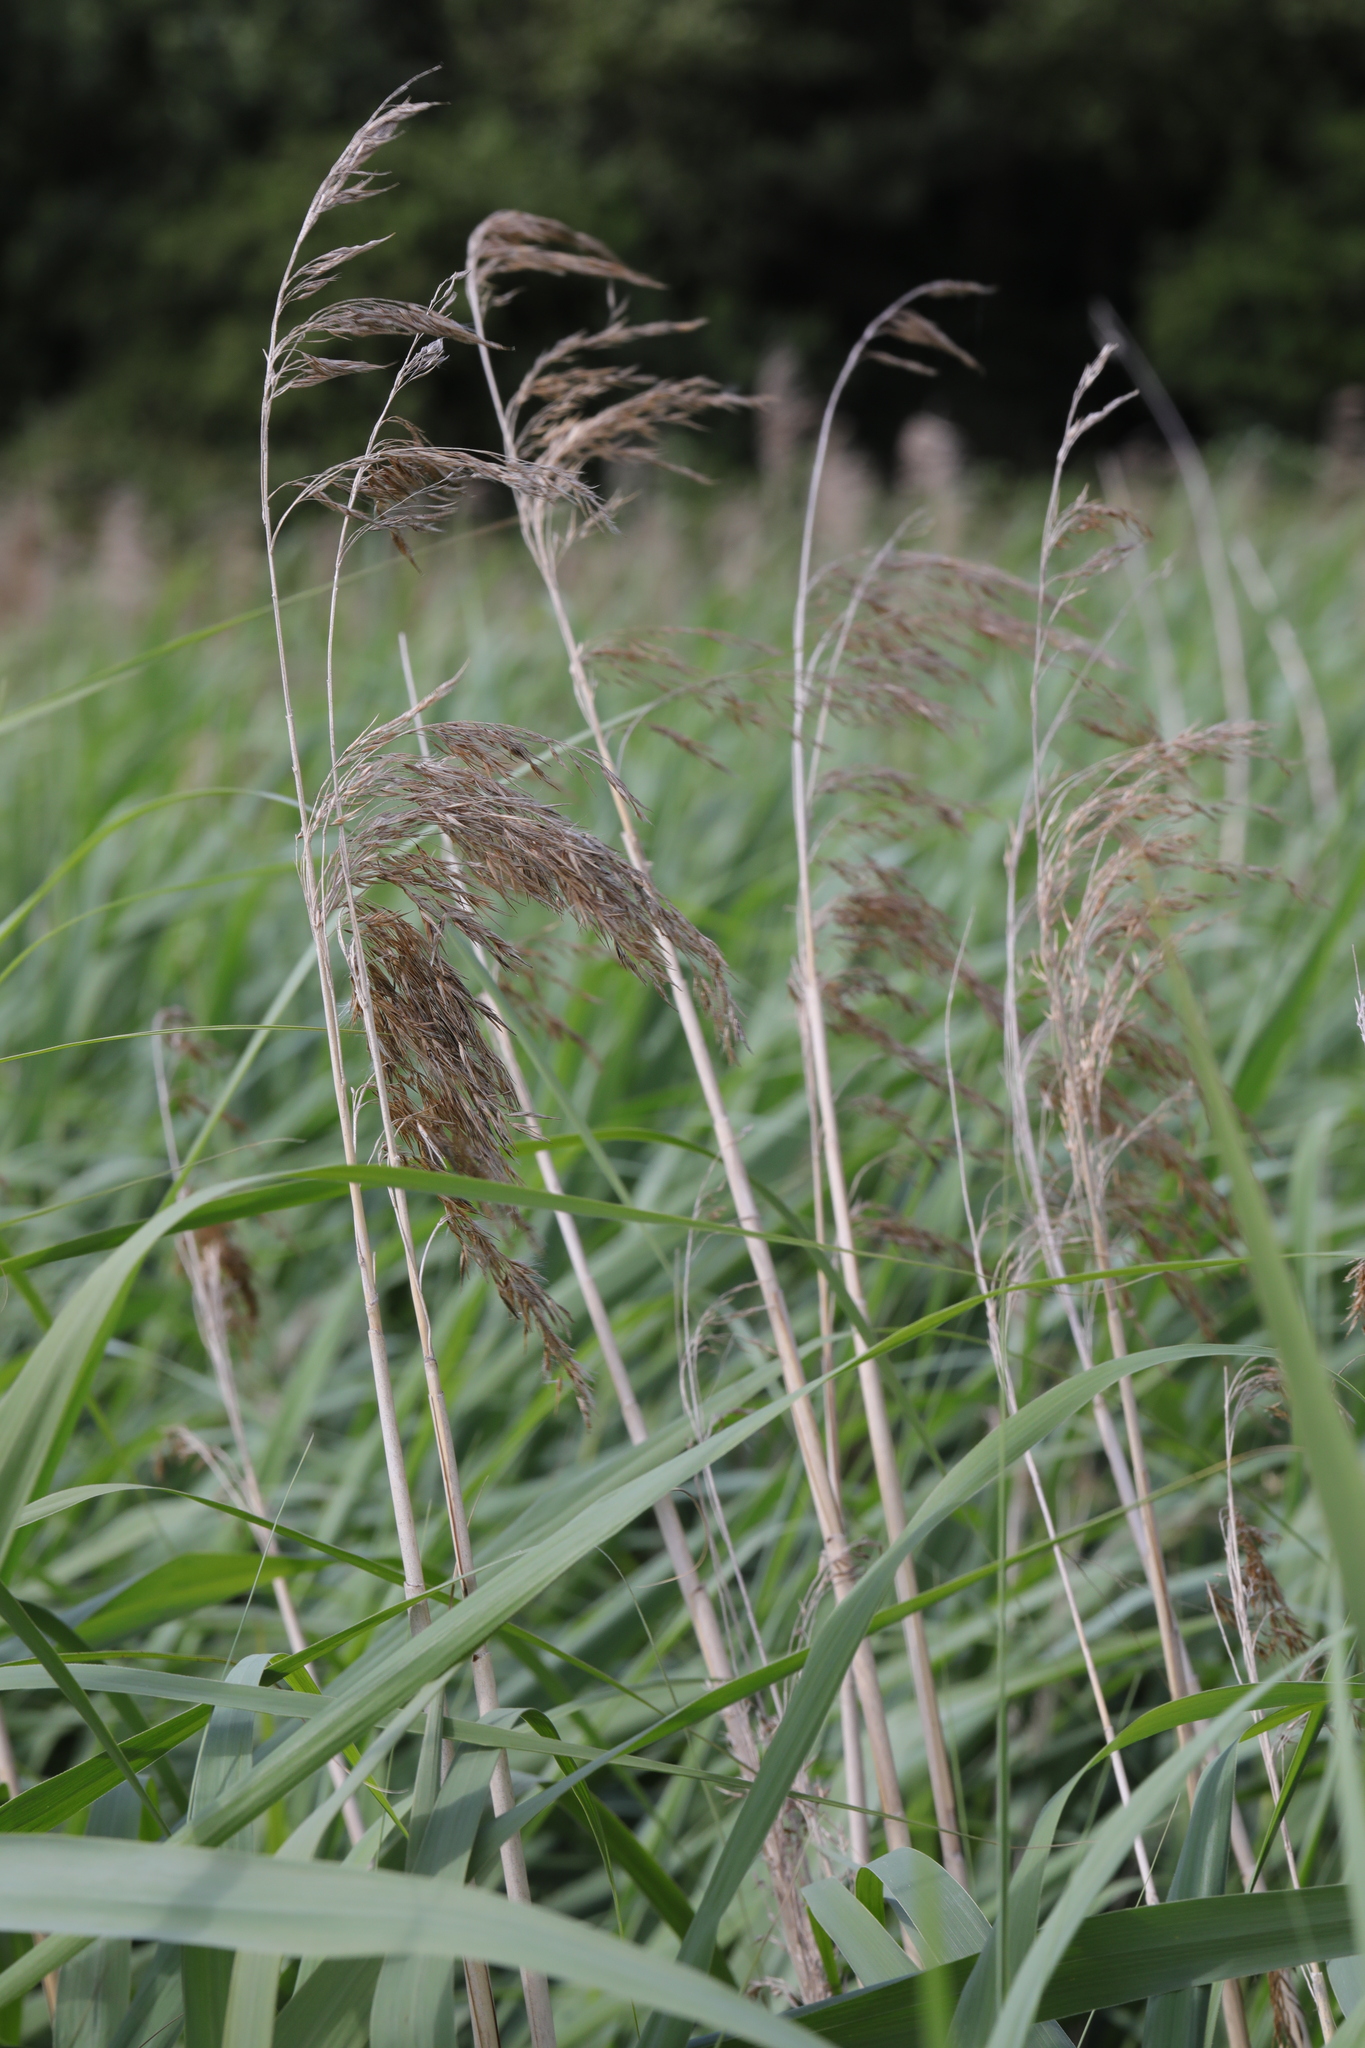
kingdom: Plantae
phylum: Tracheophyta
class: Liliopsida
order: Poales
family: Poaceae
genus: Phragmites
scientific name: Phragmites australis
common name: Common reed
